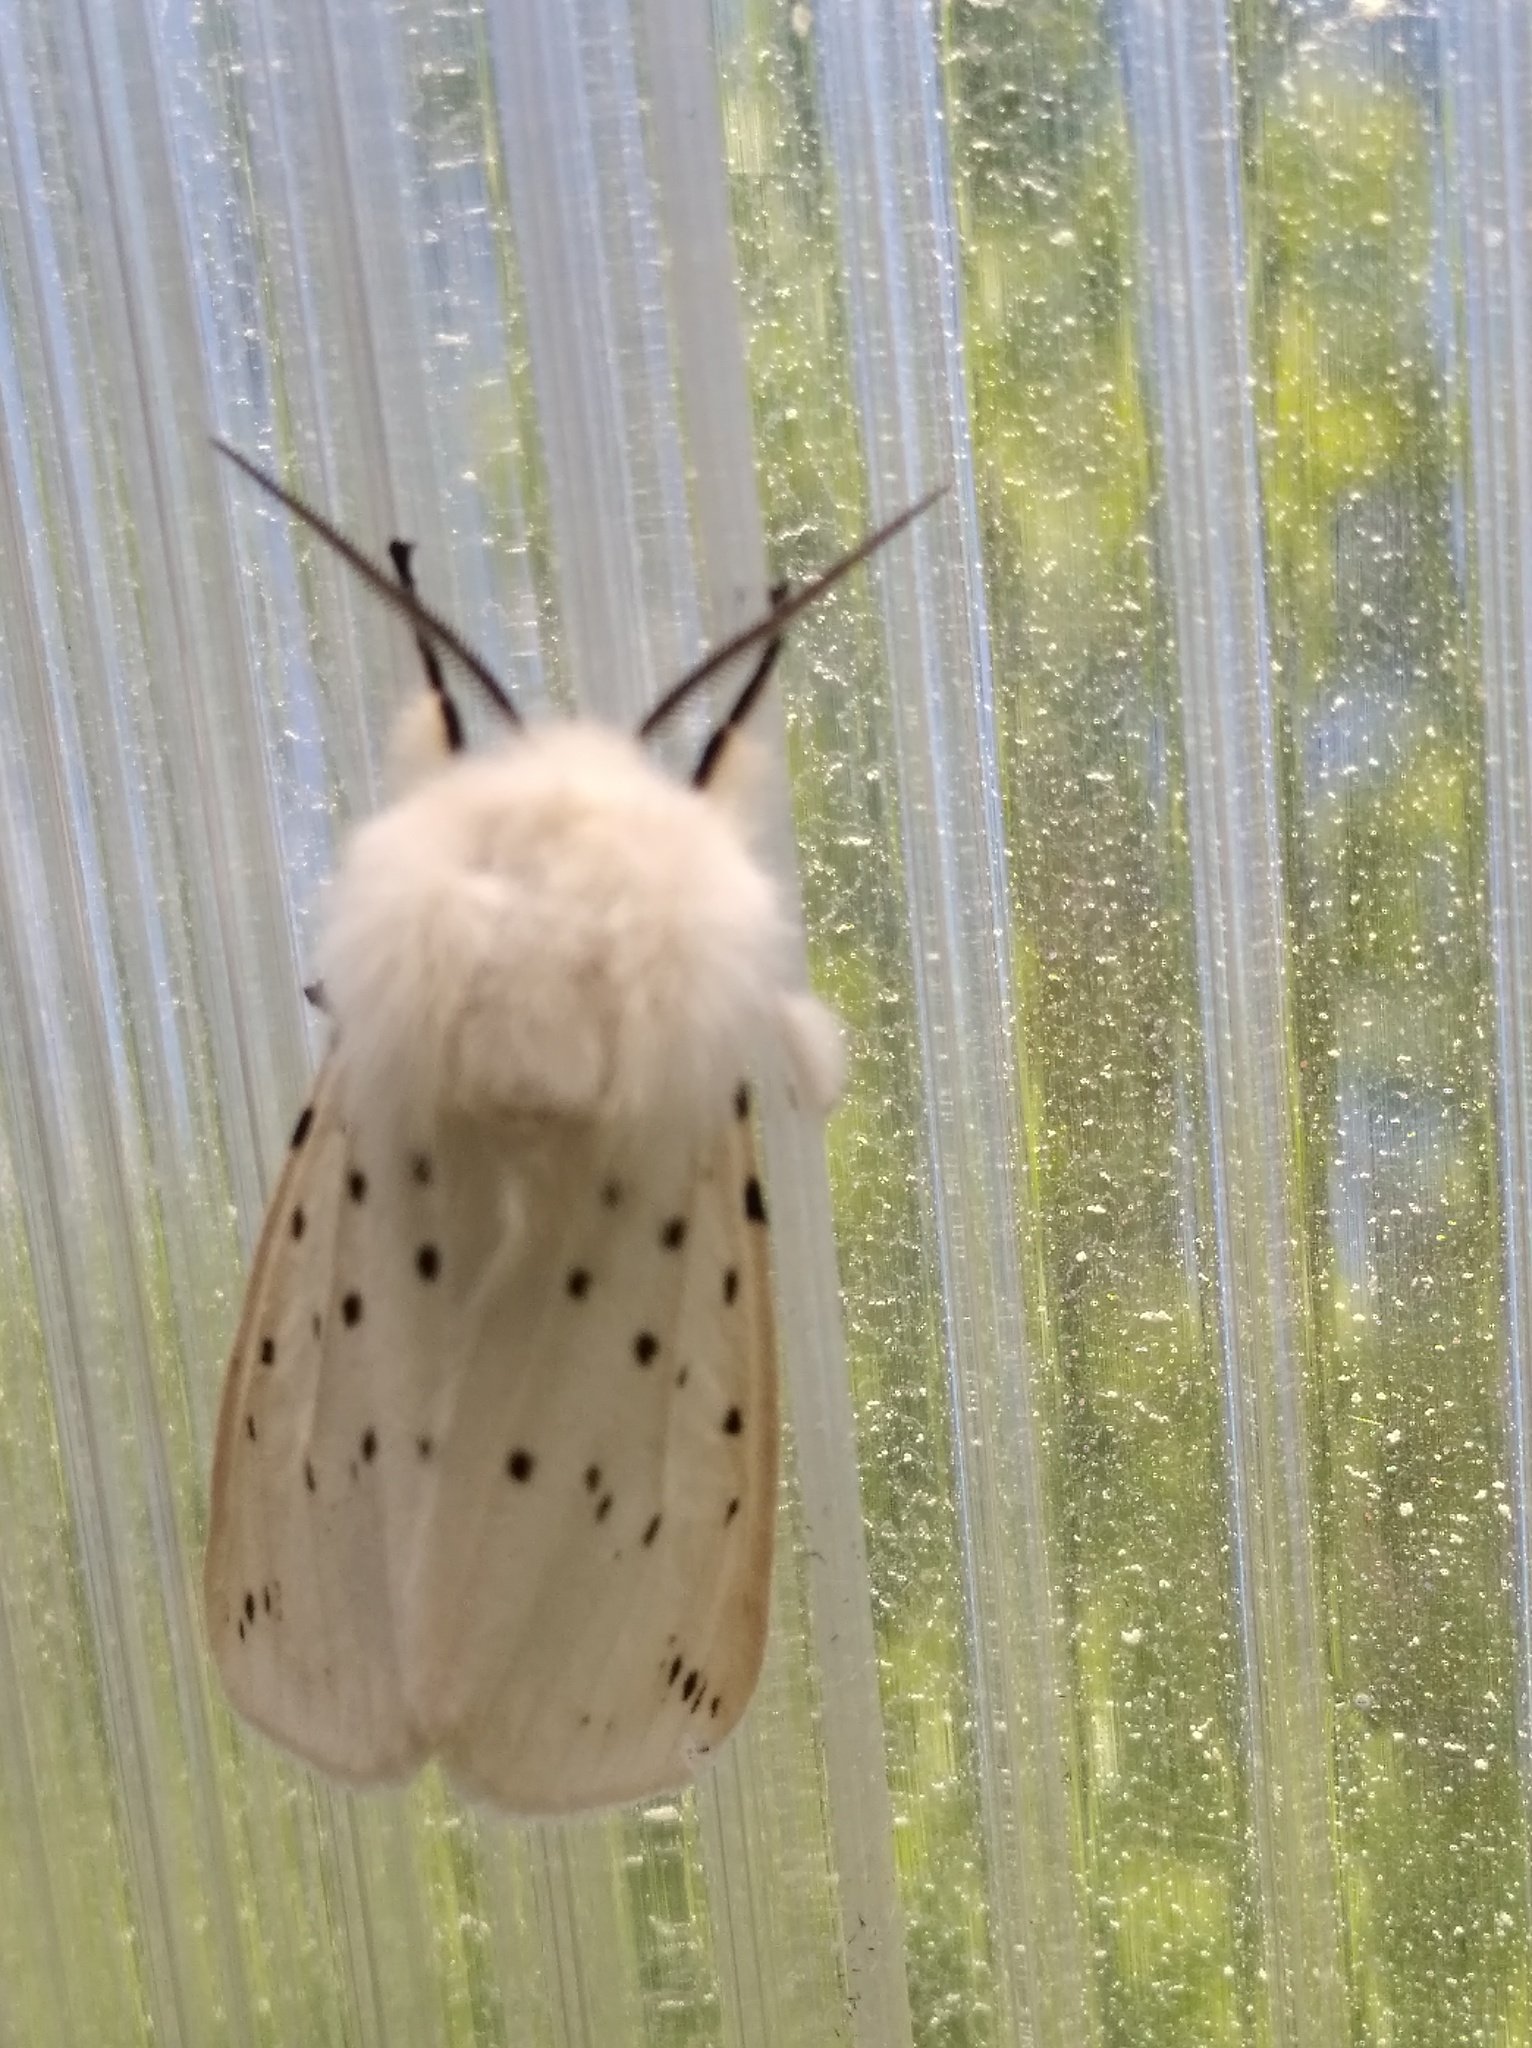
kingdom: Animalia
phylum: Arthropoda
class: Insecta
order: Lepidoptera
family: Erebidae
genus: Spilosoma
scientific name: Spilosoma lubricipeda
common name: White ermine
